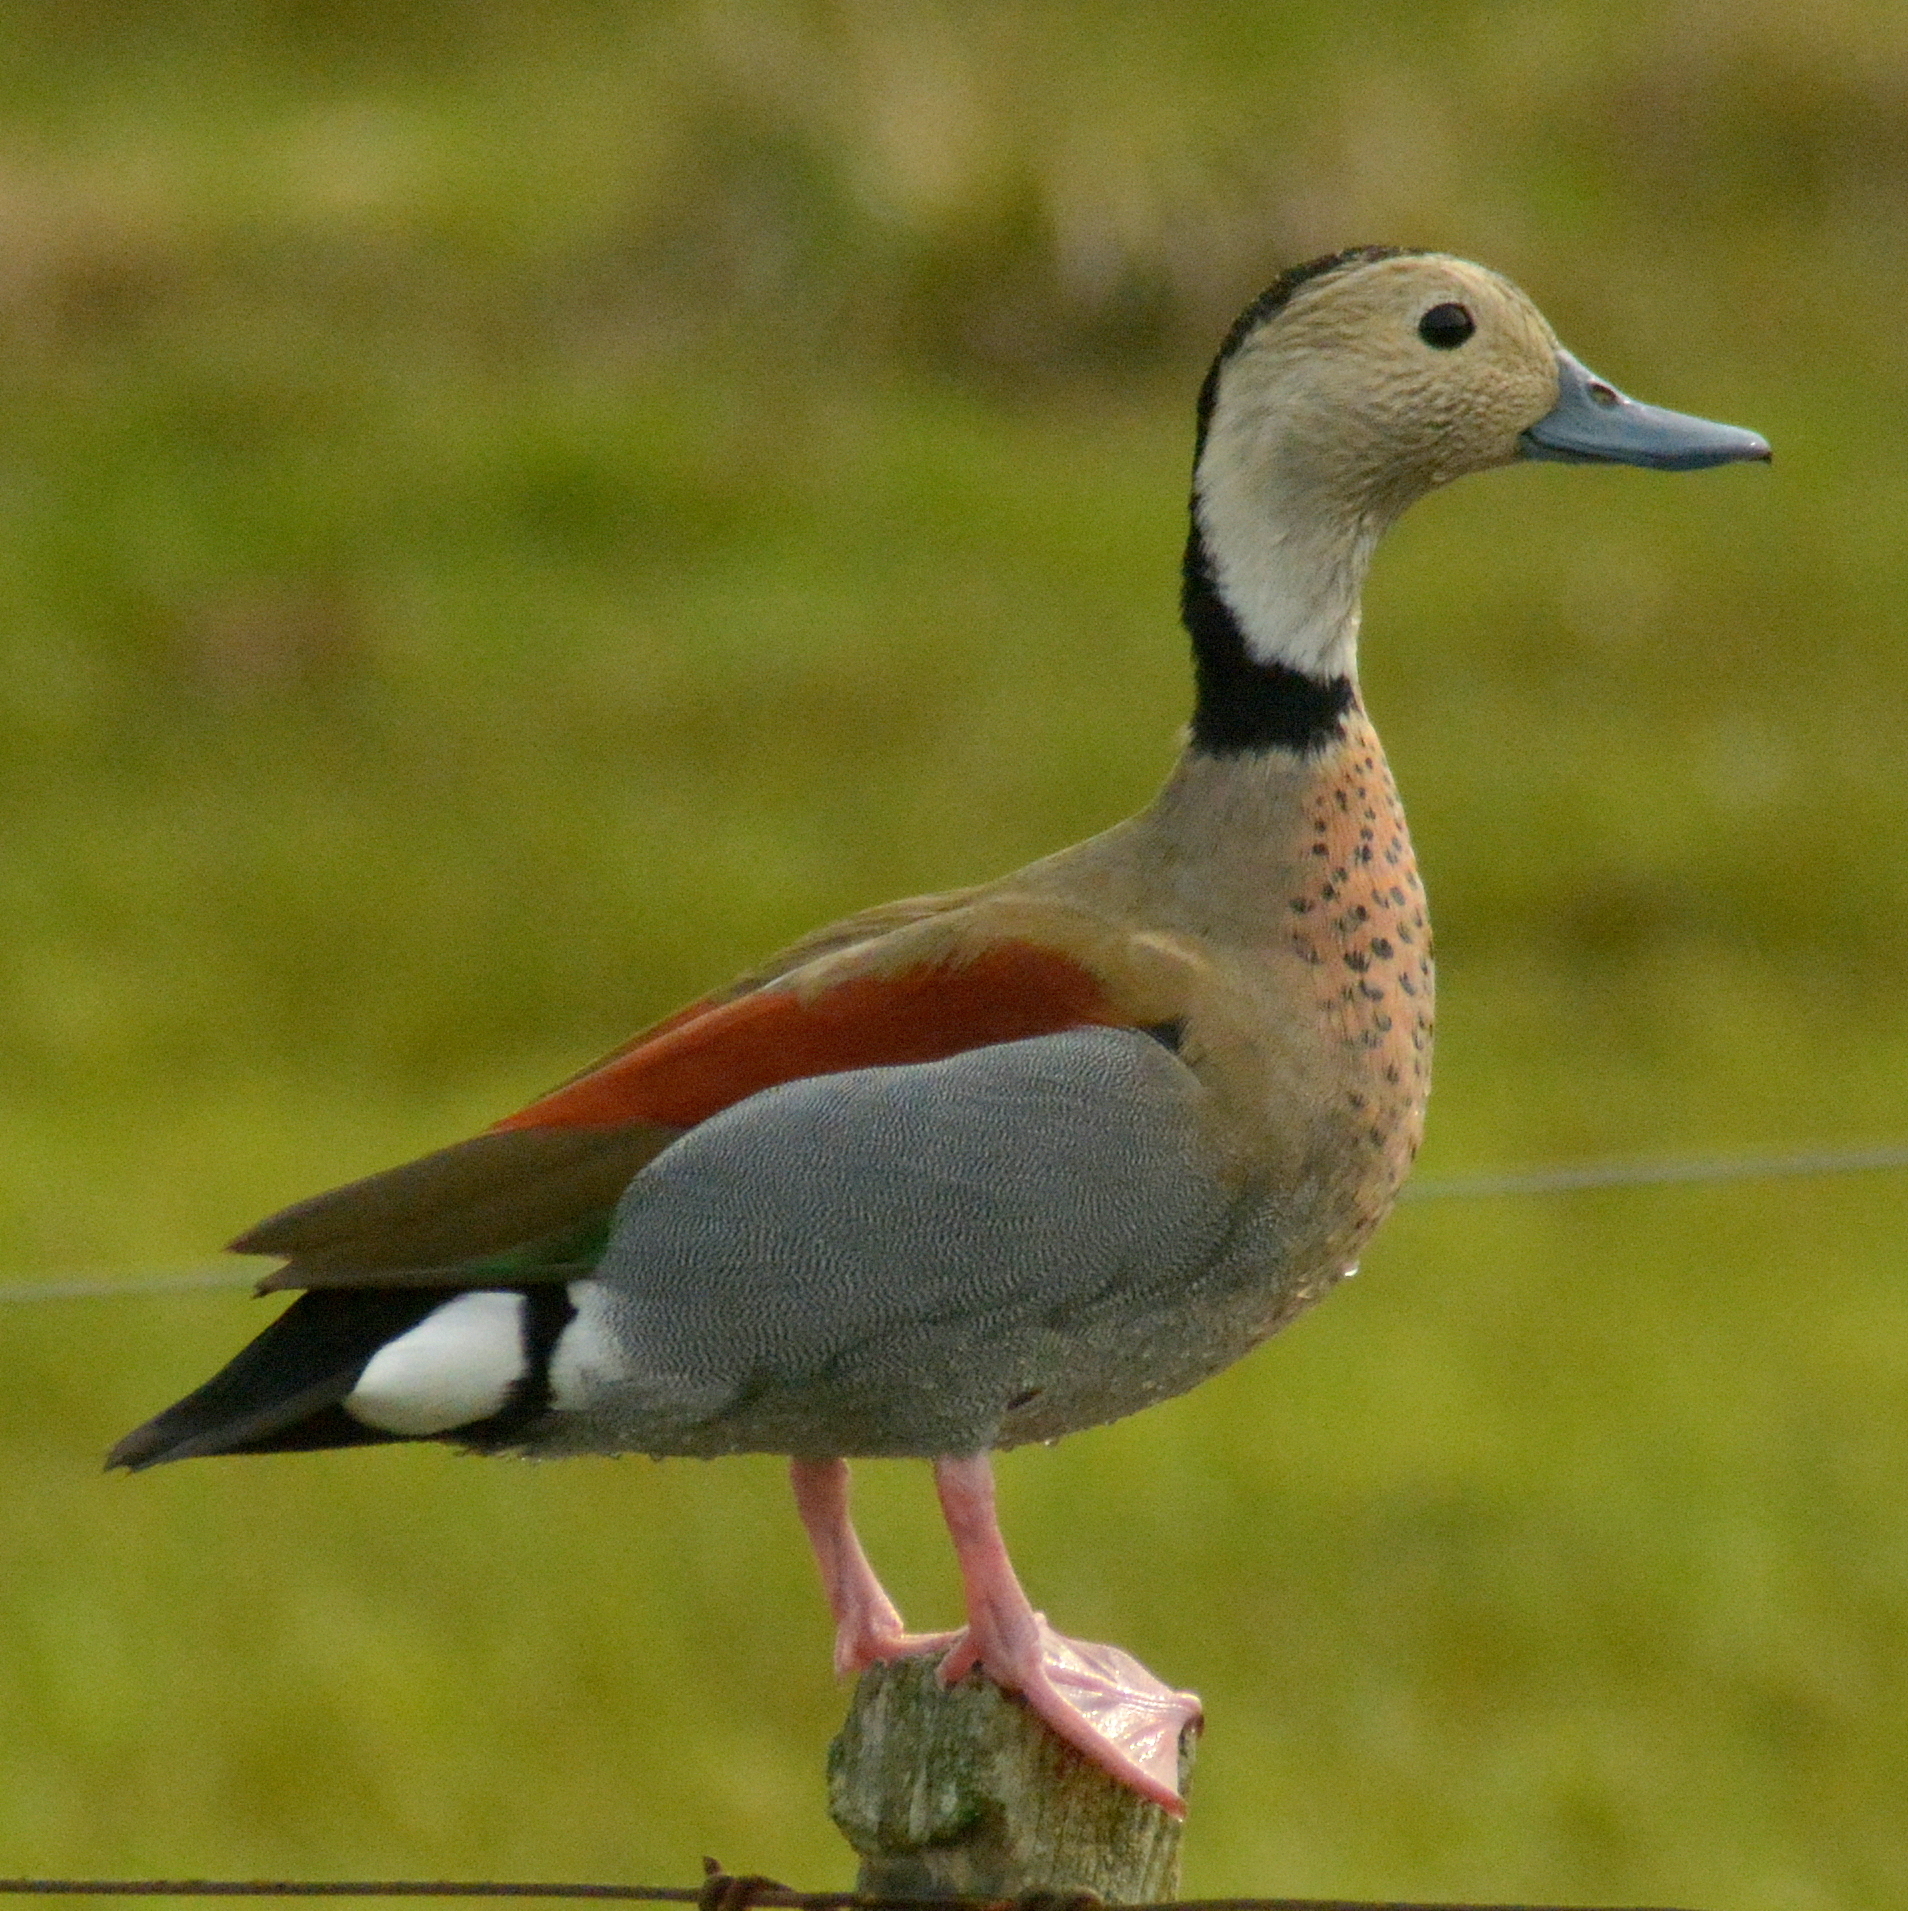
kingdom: Animalia
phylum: Chordata
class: Aves
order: Anseriformes
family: Anatidae
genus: Callonetta
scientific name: Callonetta leucophrys
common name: Ringed teal
